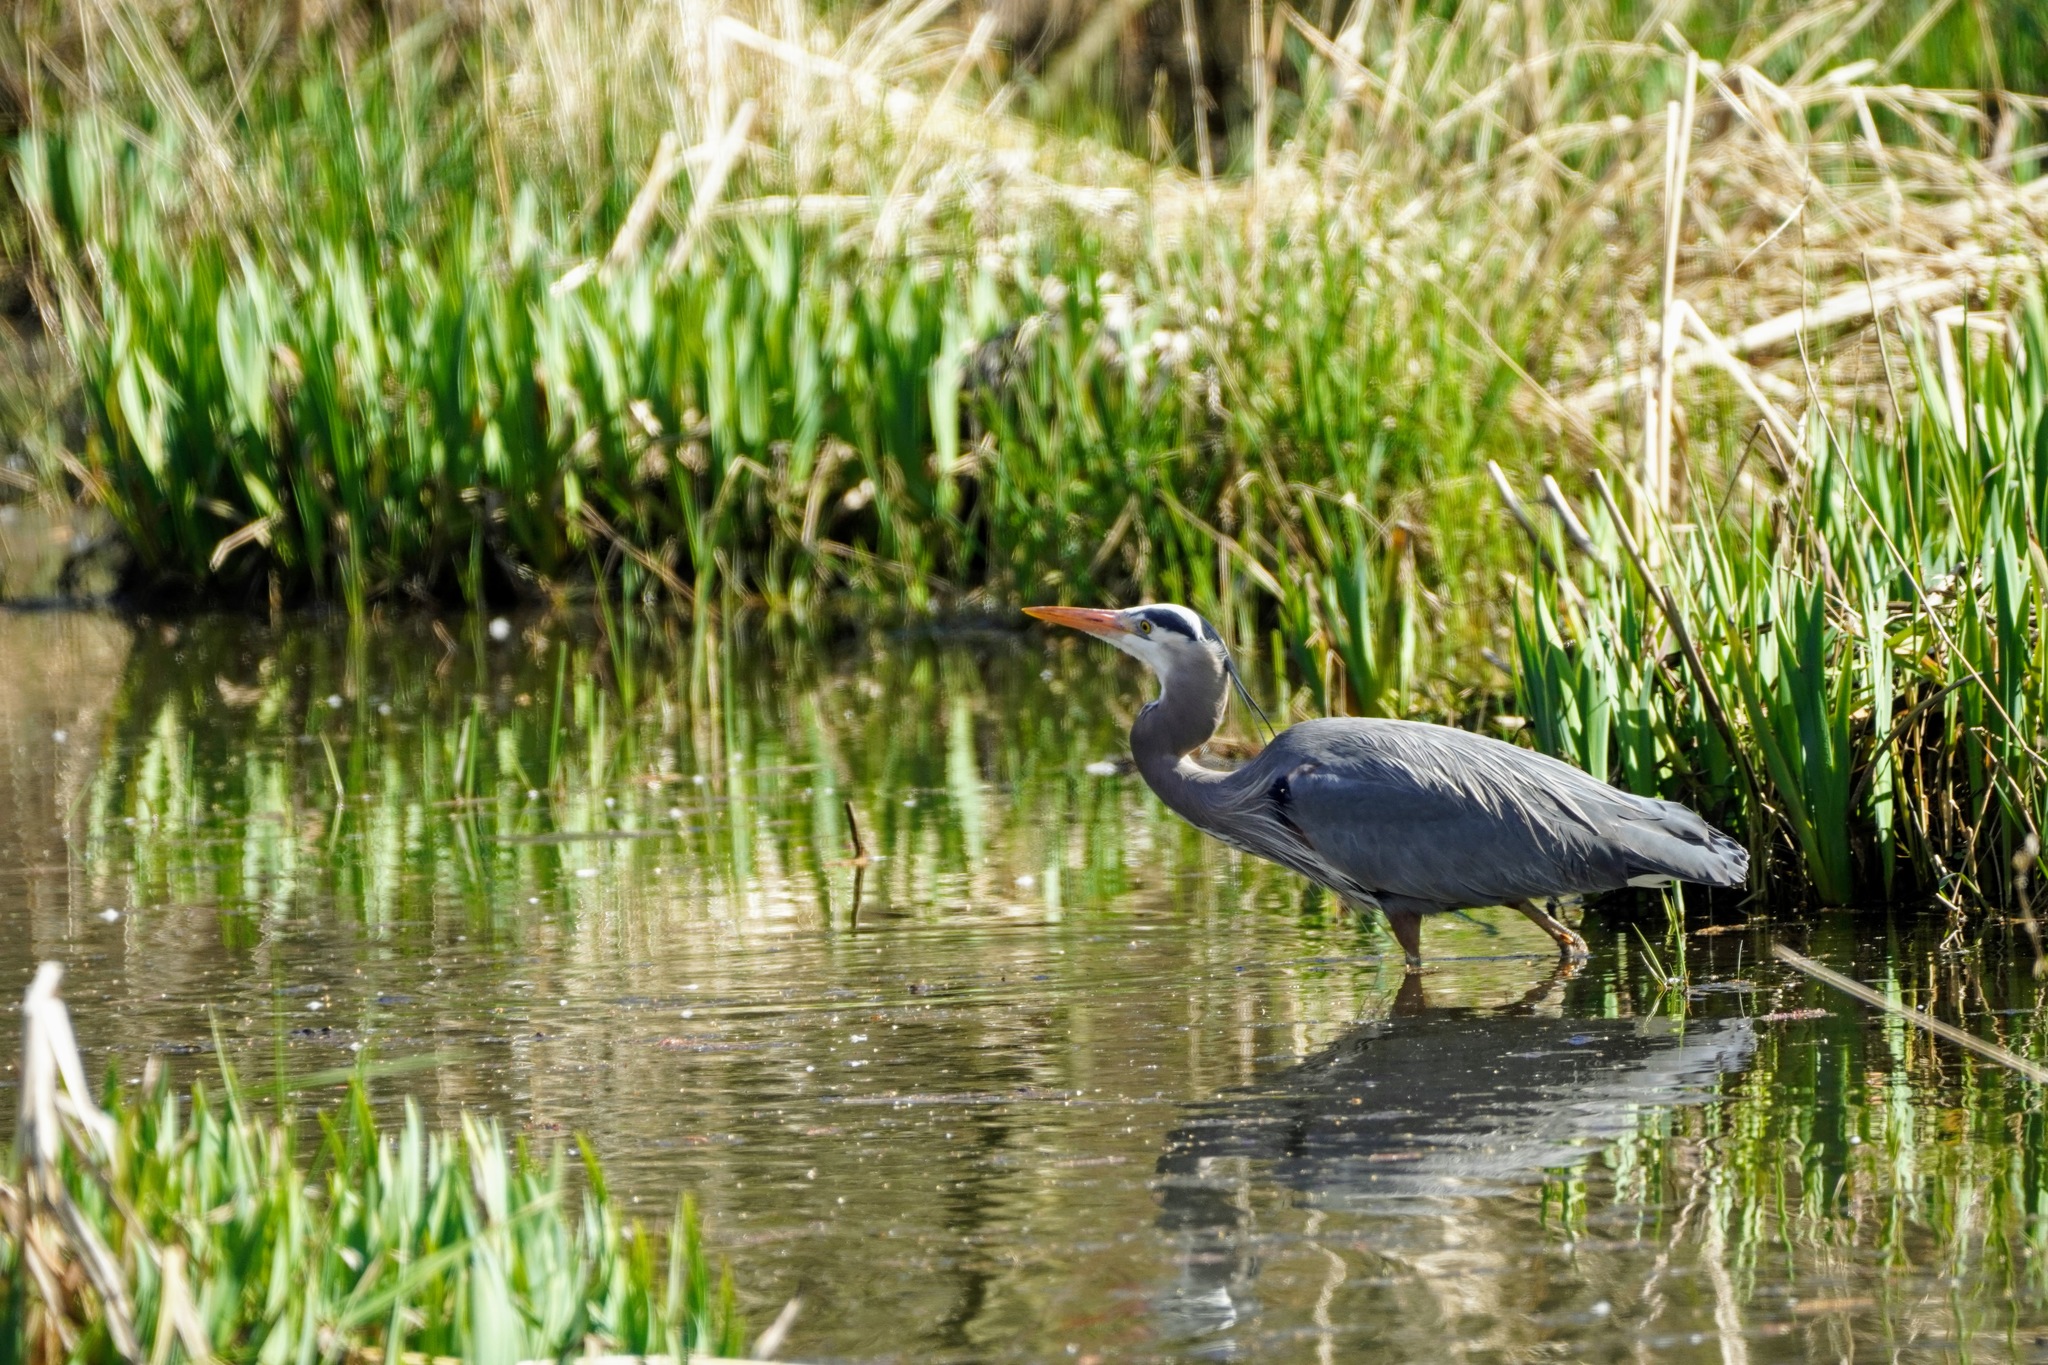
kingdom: Animalia
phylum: Chordata
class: Aves
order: Pelecaniformes
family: Ardeidae
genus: Ardea
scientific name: Ardea herodias
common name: Great blue heron
